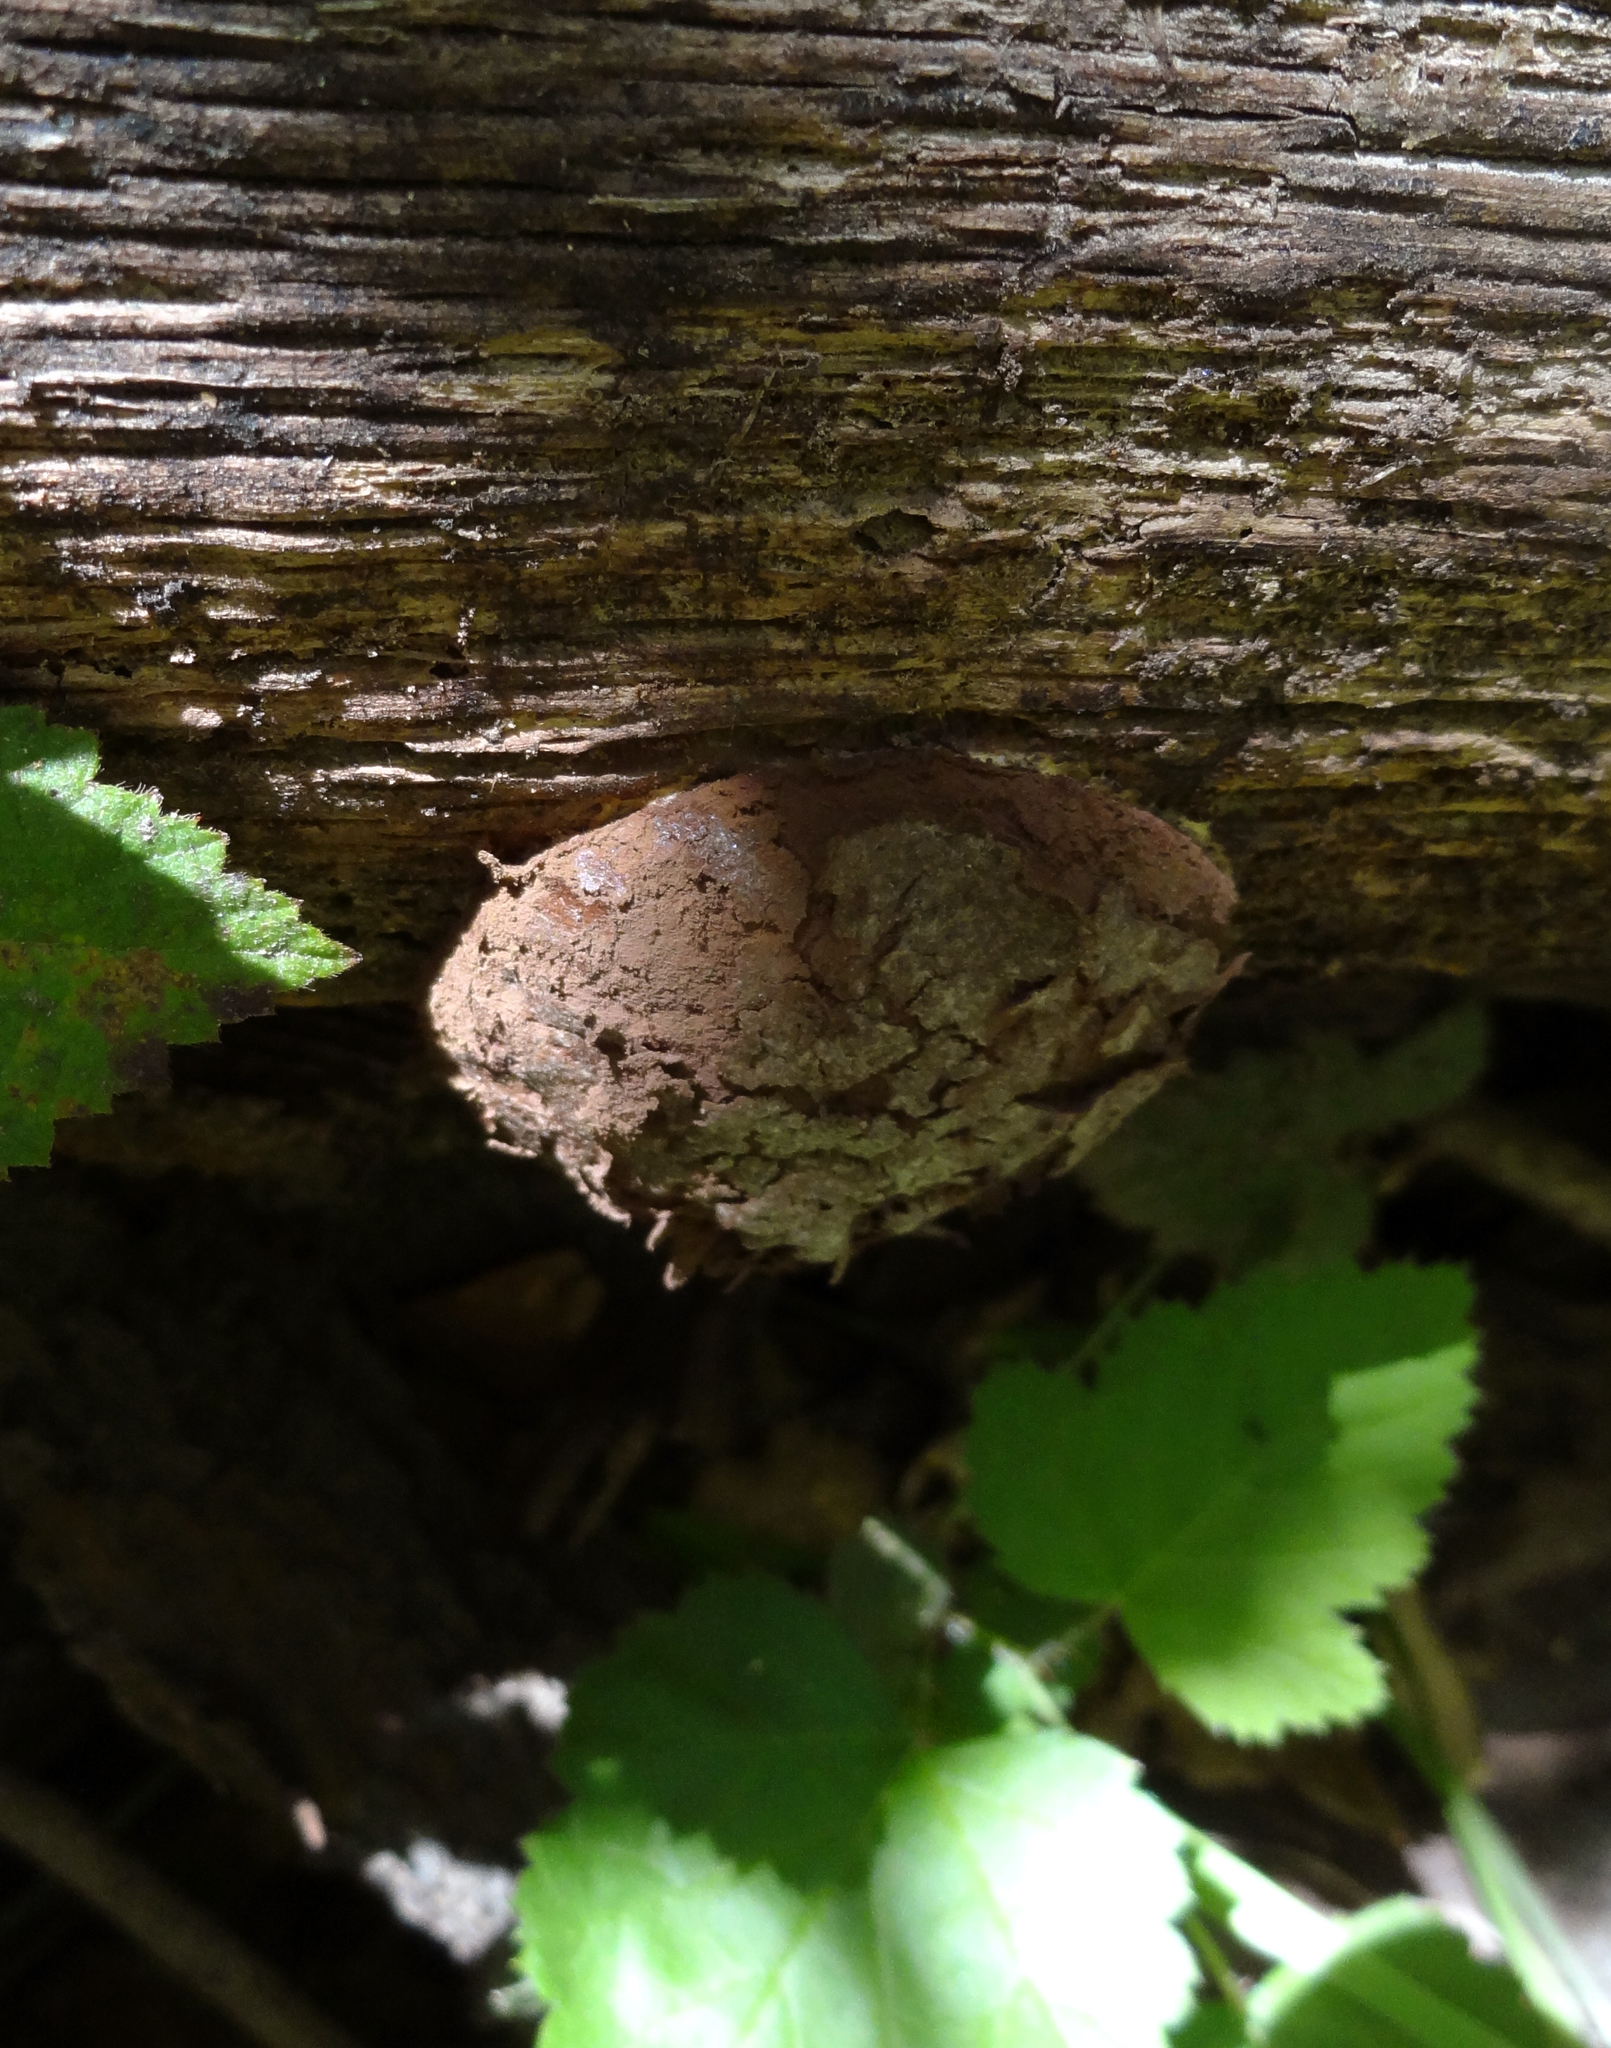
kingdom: Protozoa
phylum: Mycetozoa
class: Myxomycetes
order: Cribrariales
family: Tubiferaceae
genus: Reticularia
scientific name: Reticularia lycoperdon
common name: False puffball
